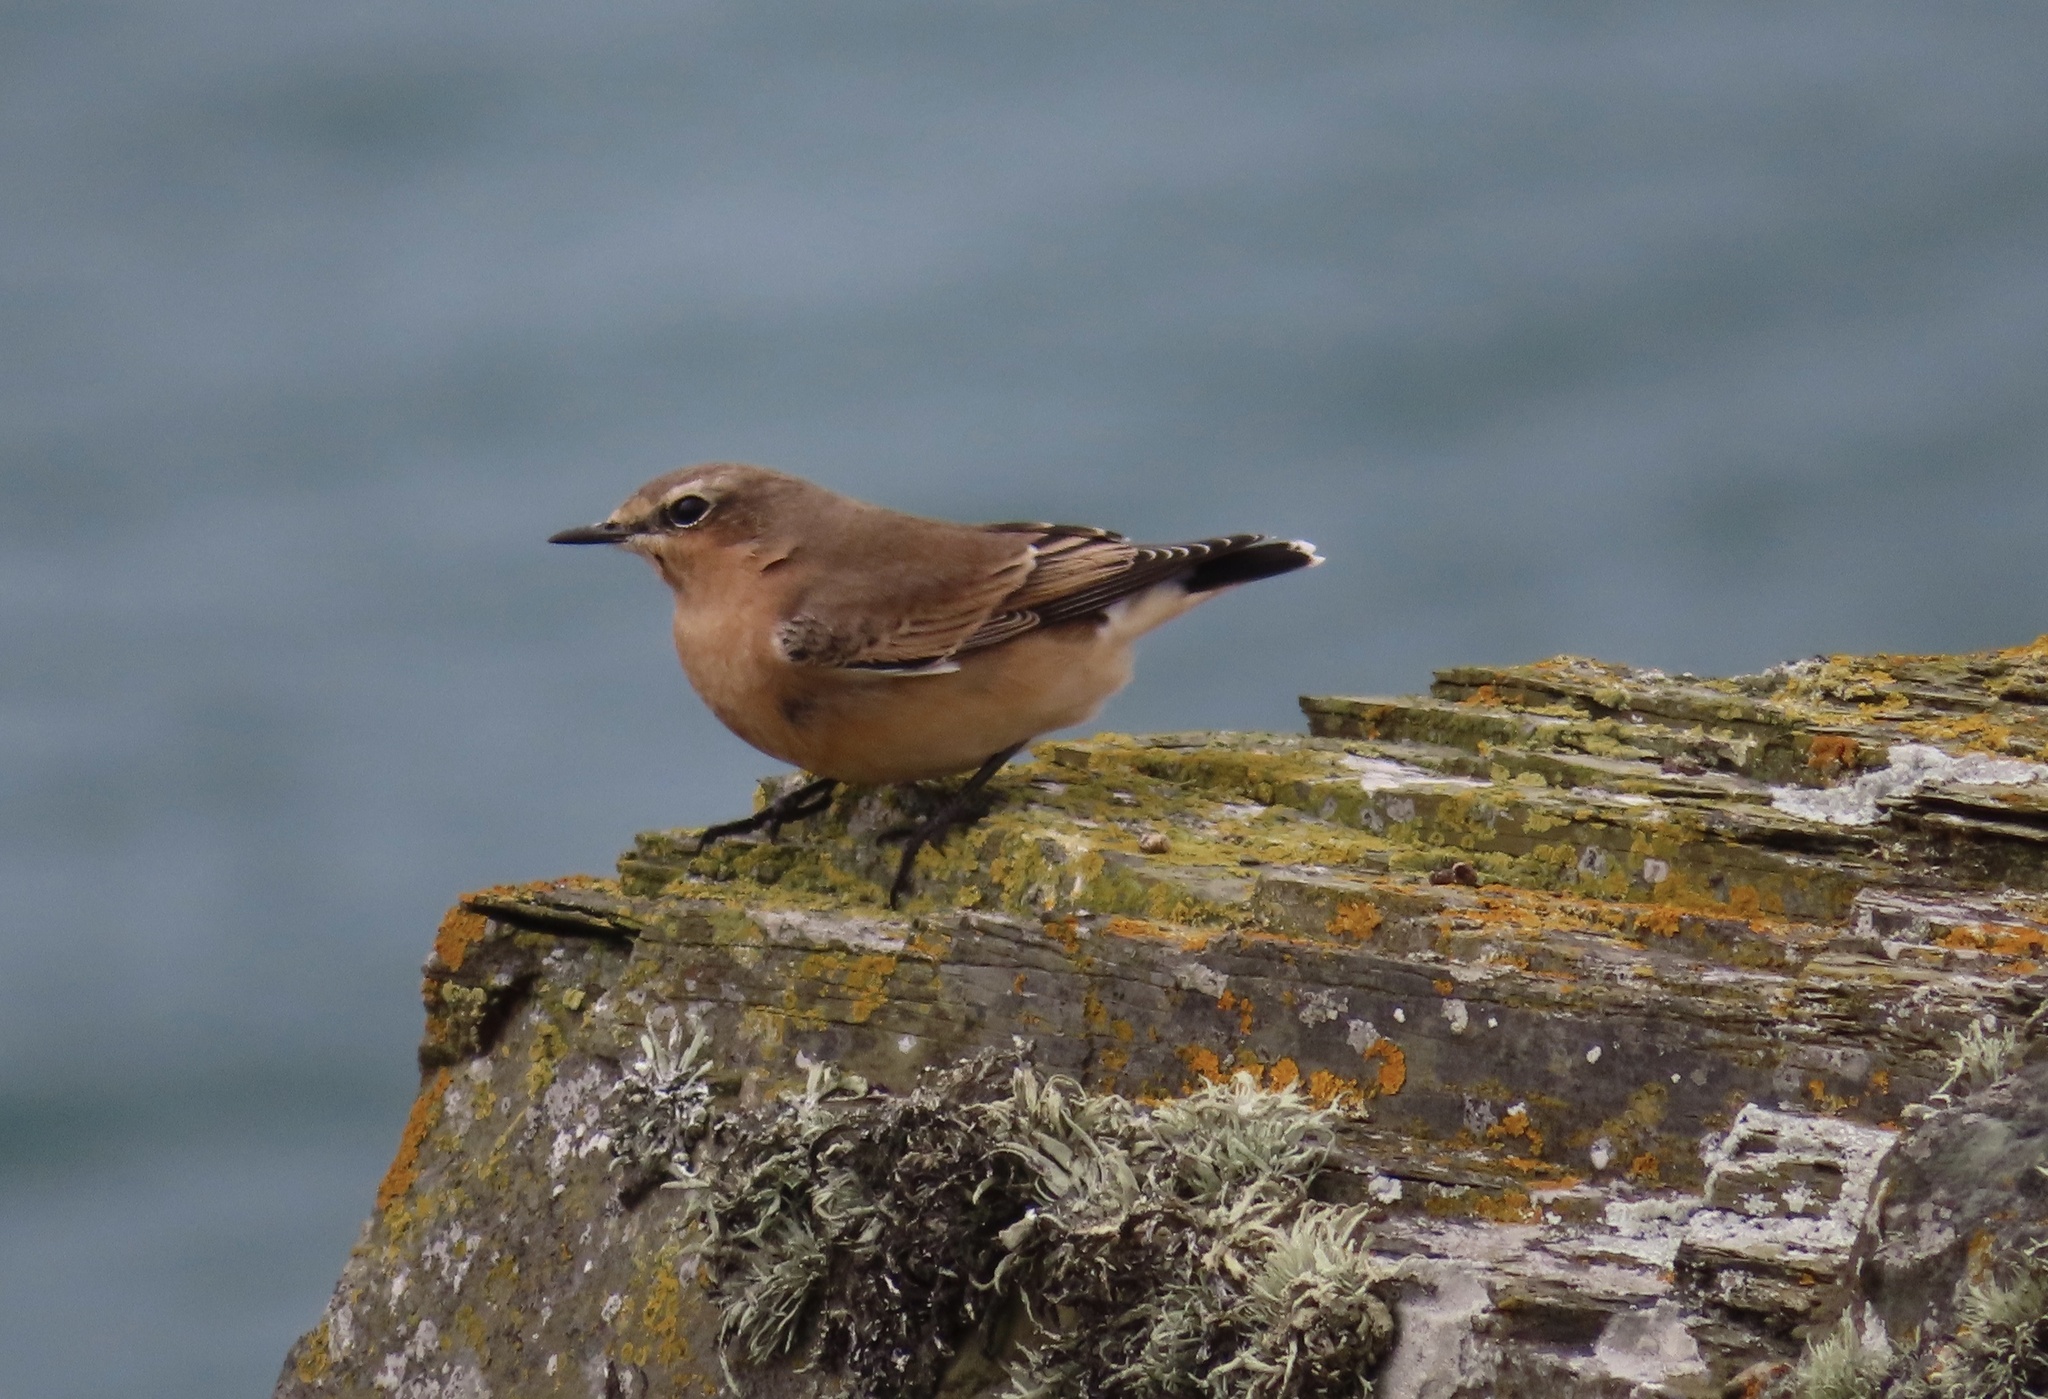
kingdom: Animalia
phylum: Chordata
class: Aves
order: Passeriformes
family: Muscicapidae
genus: Oenanthe
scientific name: Oenanthe oenanthe
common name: Northern wheatear
